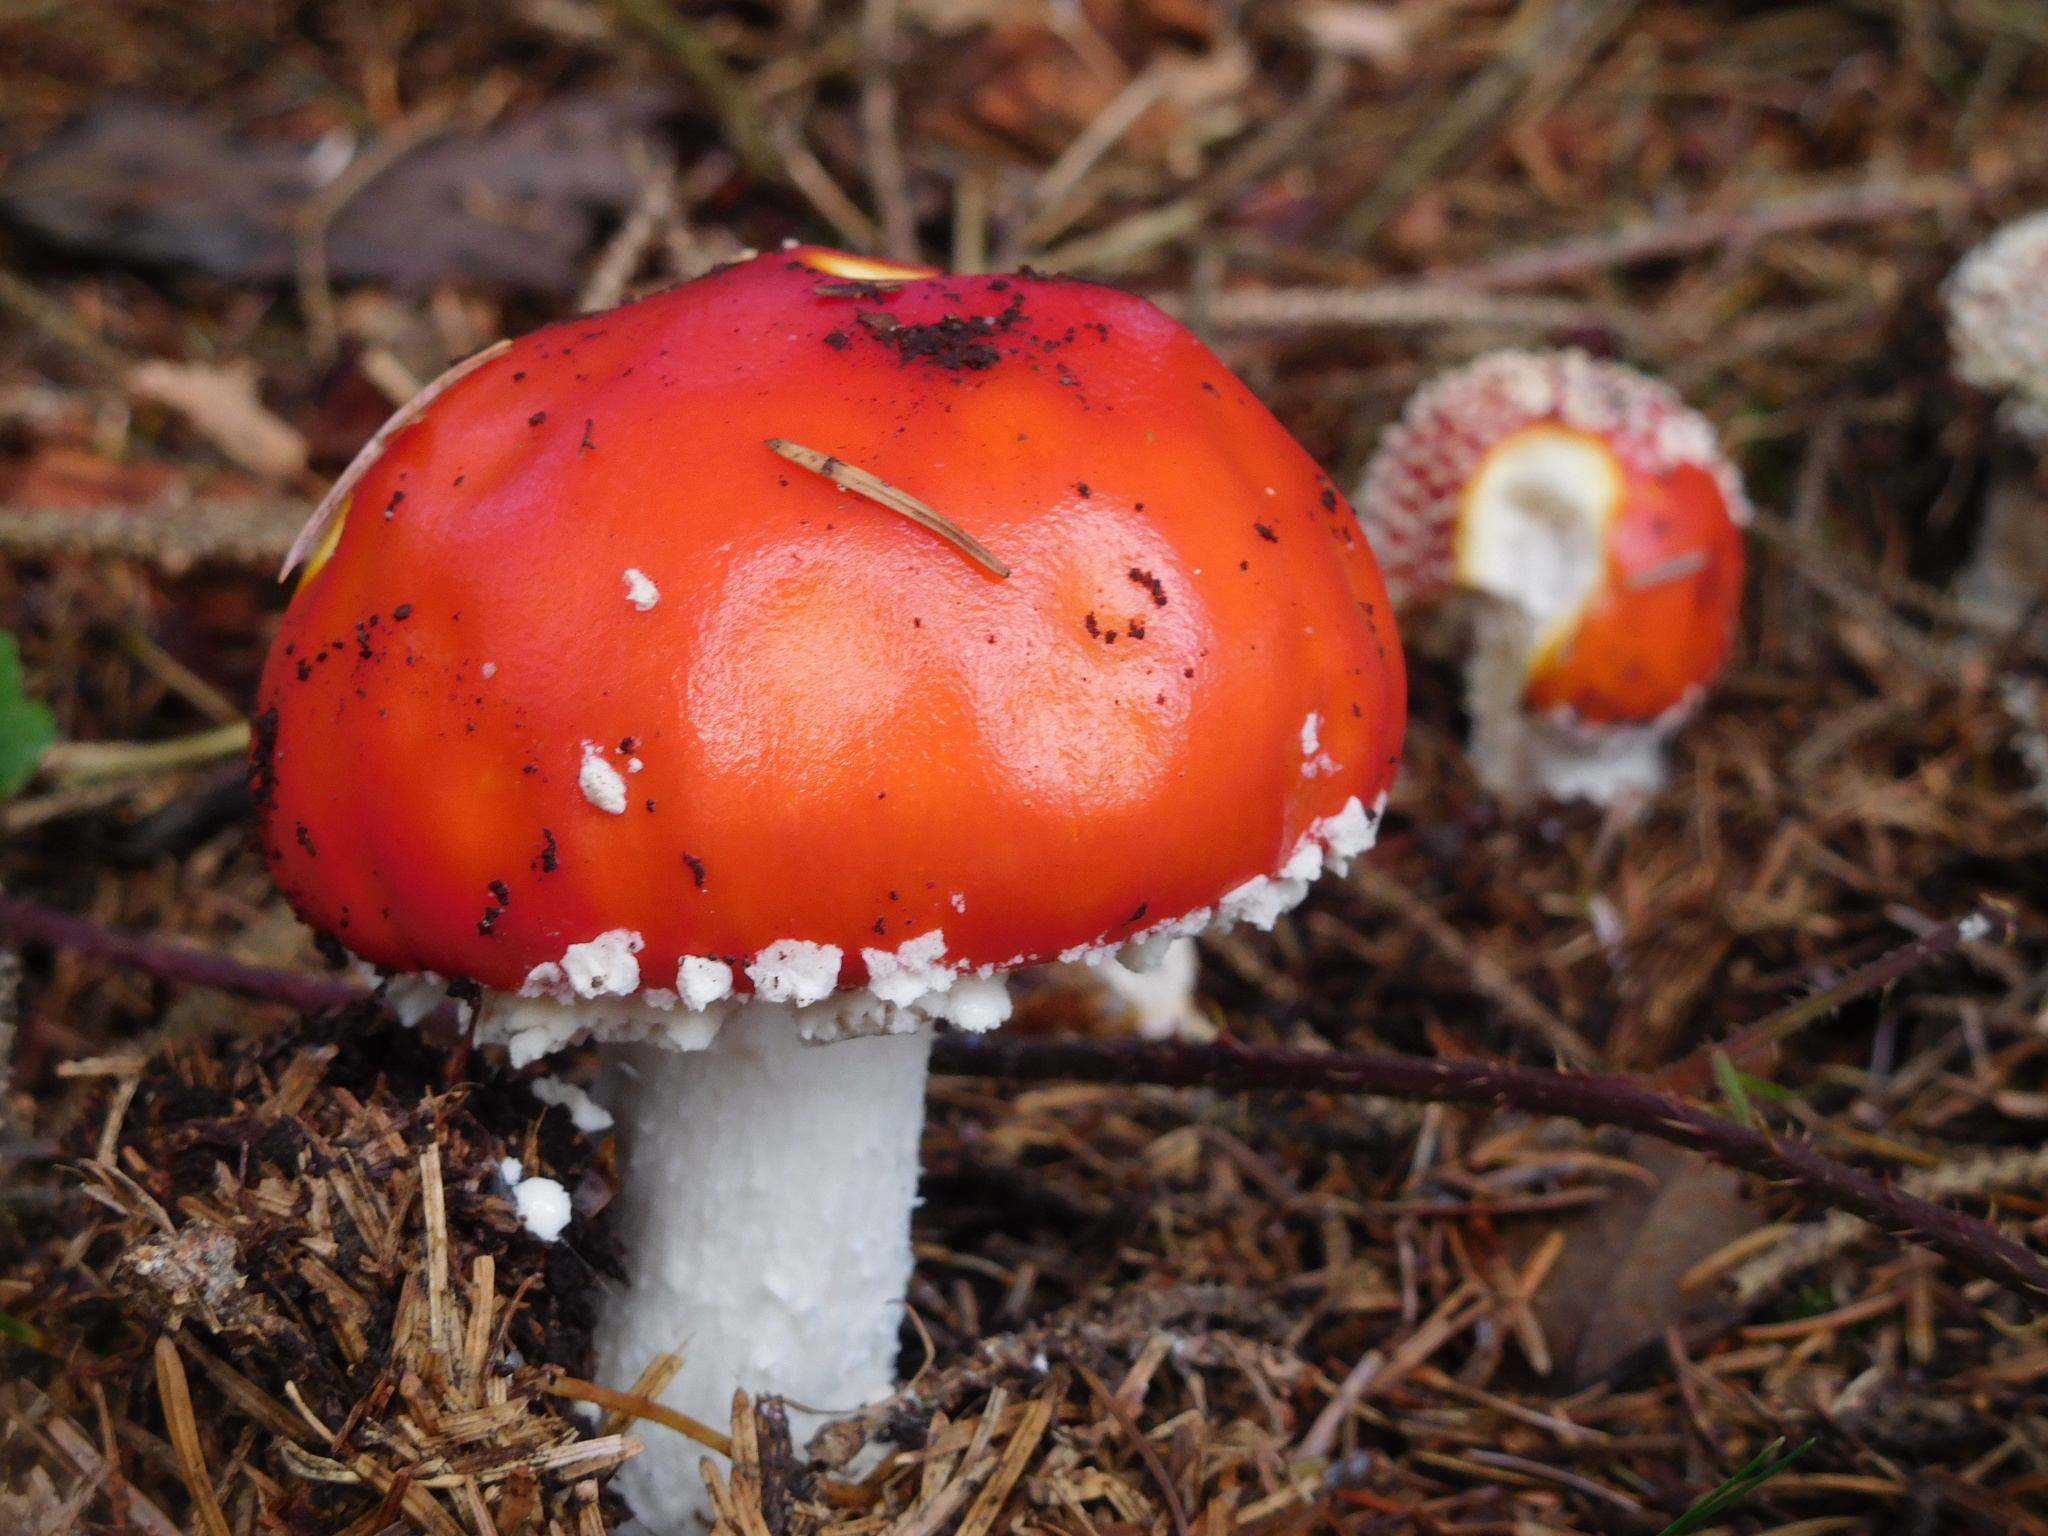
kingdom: Fungi
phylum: Basidiomycota
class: Agaricomycetes
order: Agaricales
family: Amanitaceae
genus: Amanita
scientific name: Amanita muscaria
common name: Fly agaric
